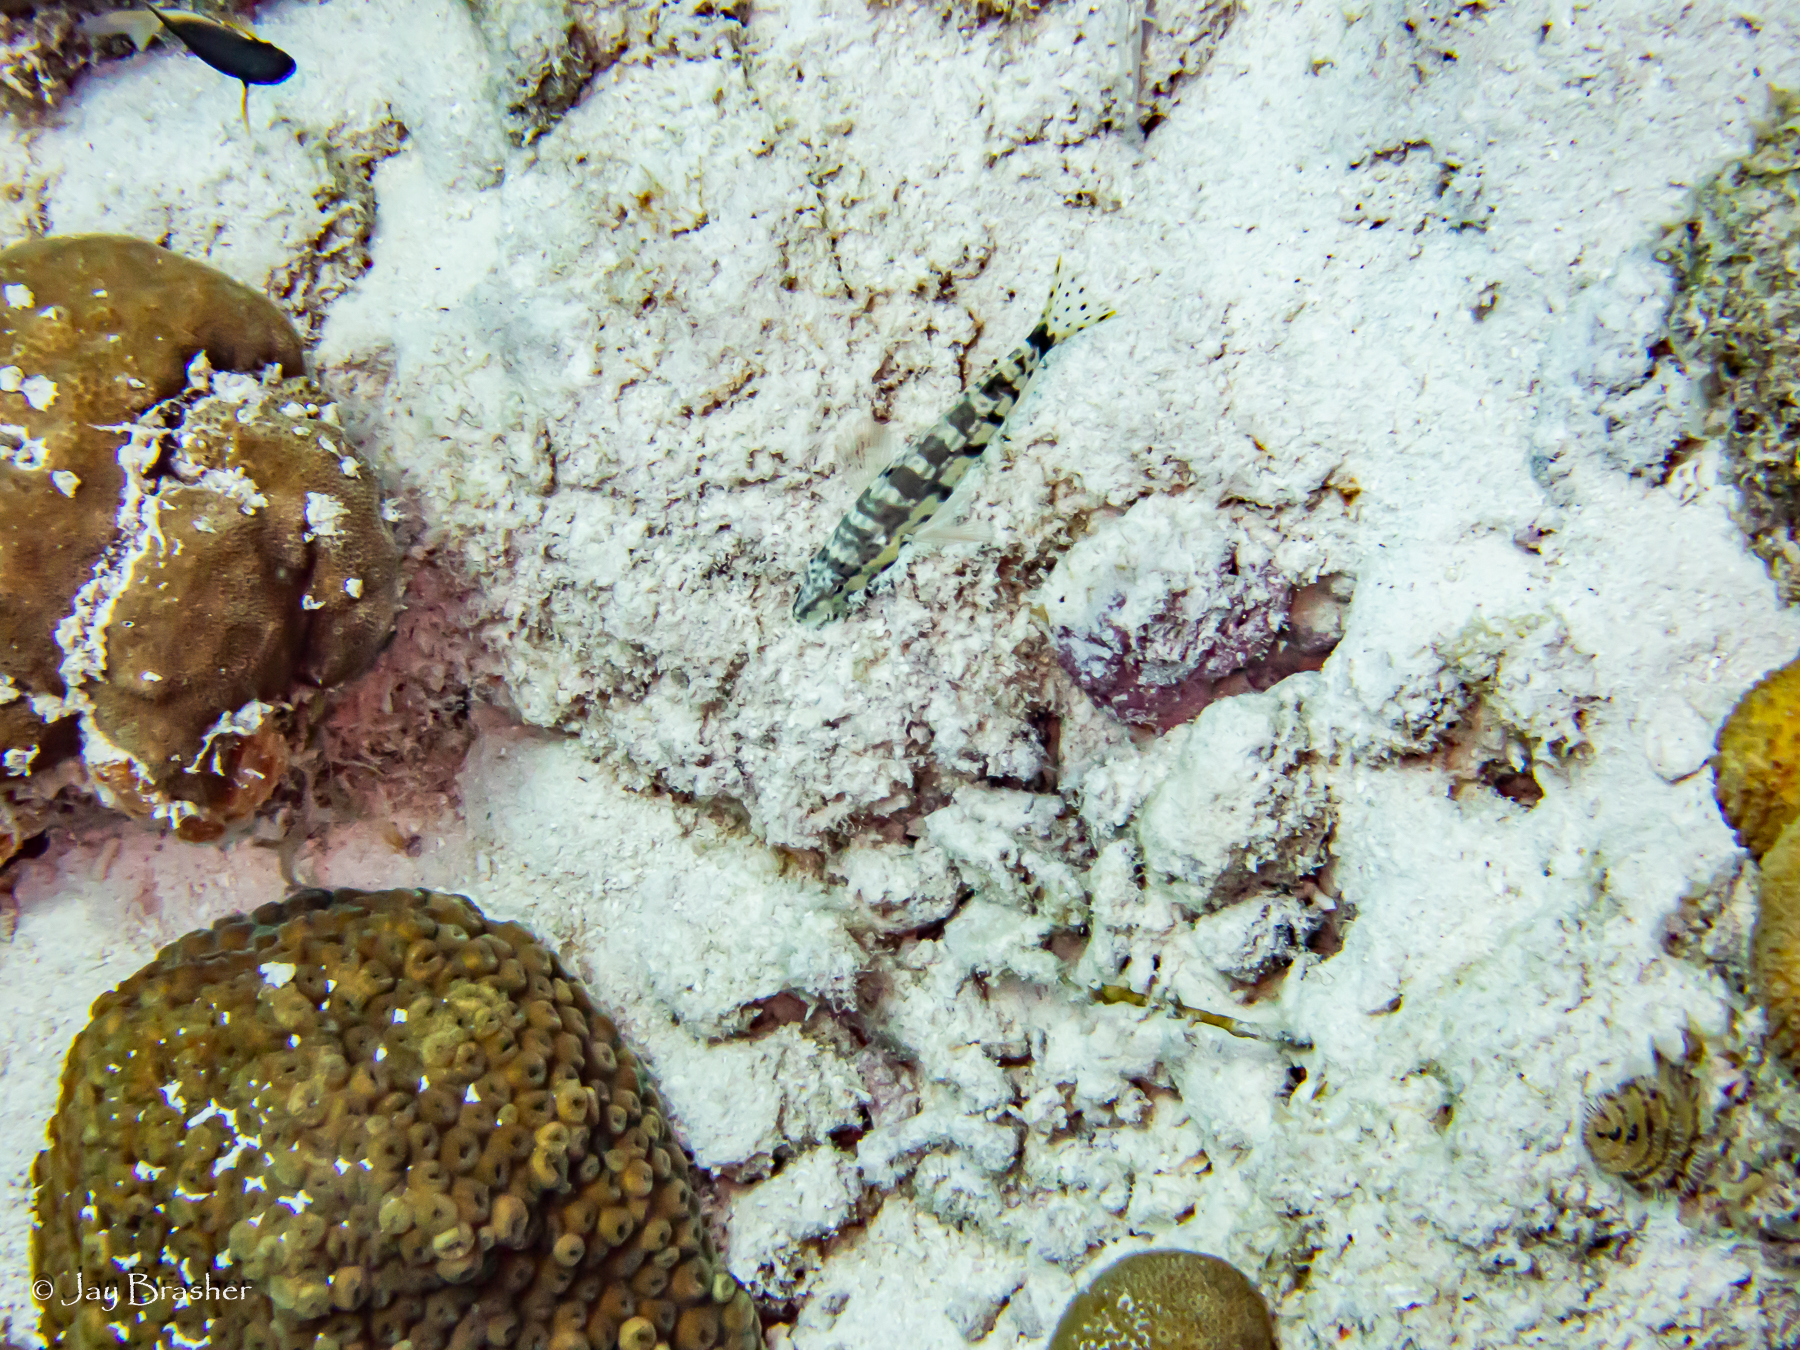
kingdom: Animalia
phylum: Cnidaria
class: Anthozoa
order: Scleractinia
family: Montastraeidae
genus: Montastraea
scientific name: Montastraea cavernosa
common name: Great star coral
